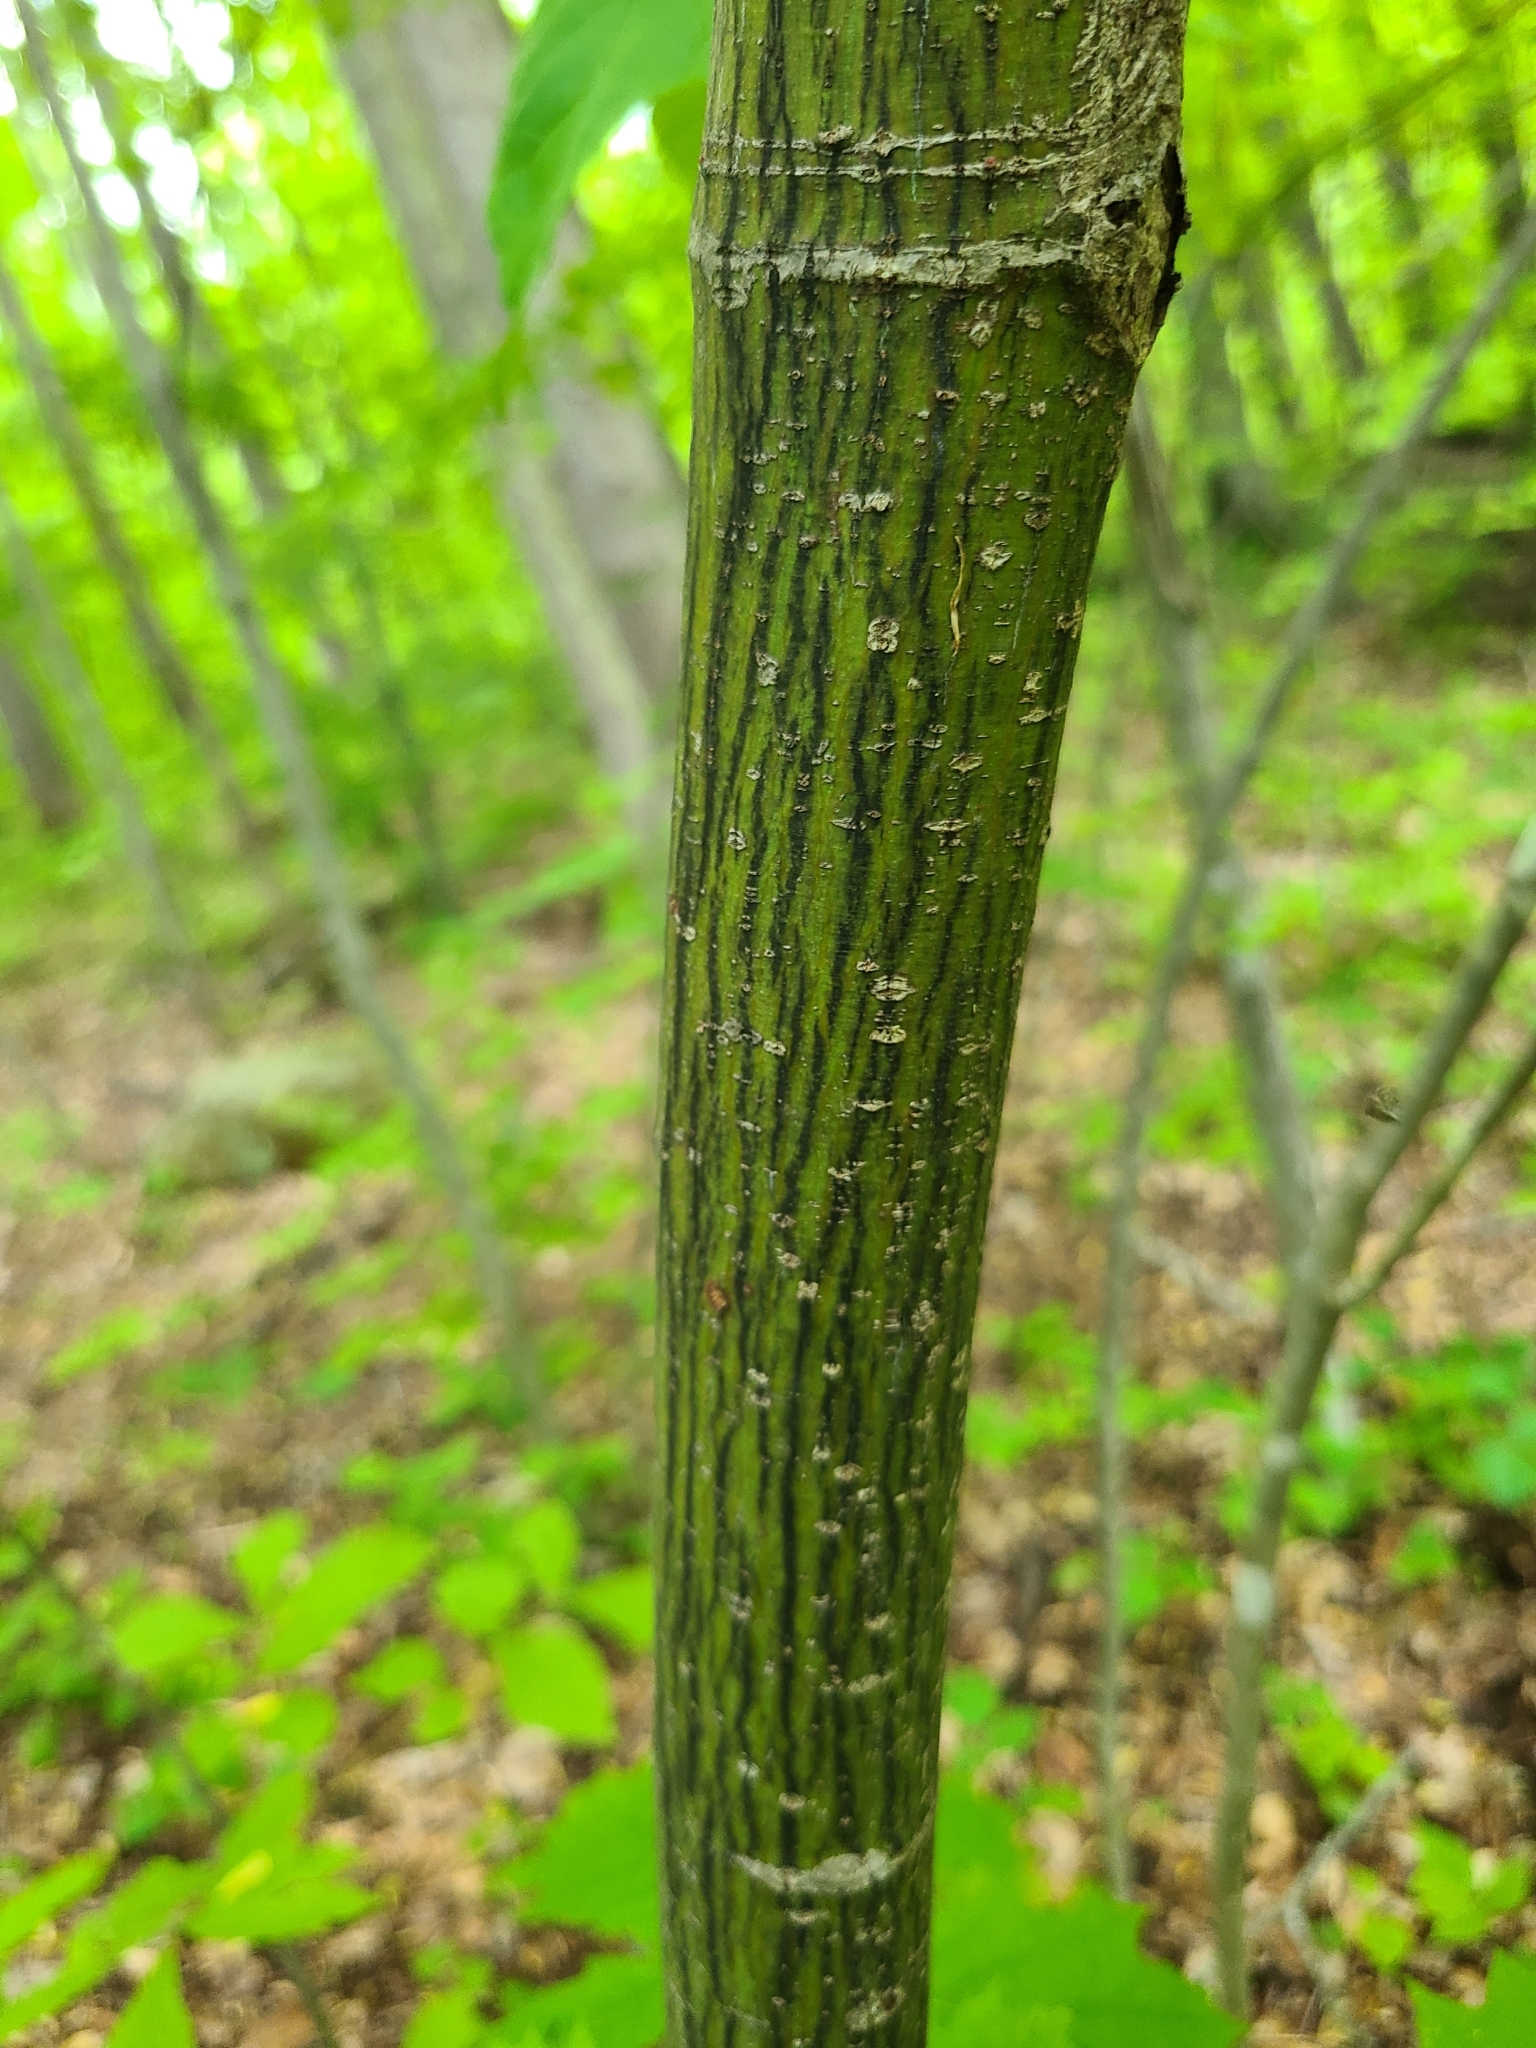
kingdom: Plantae
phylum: Tracheophyta
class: Magnoliopsida
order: Sapindales
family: Sapindaceae
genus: Acer
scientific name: Acer pensylvanicum
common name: Moosewood
